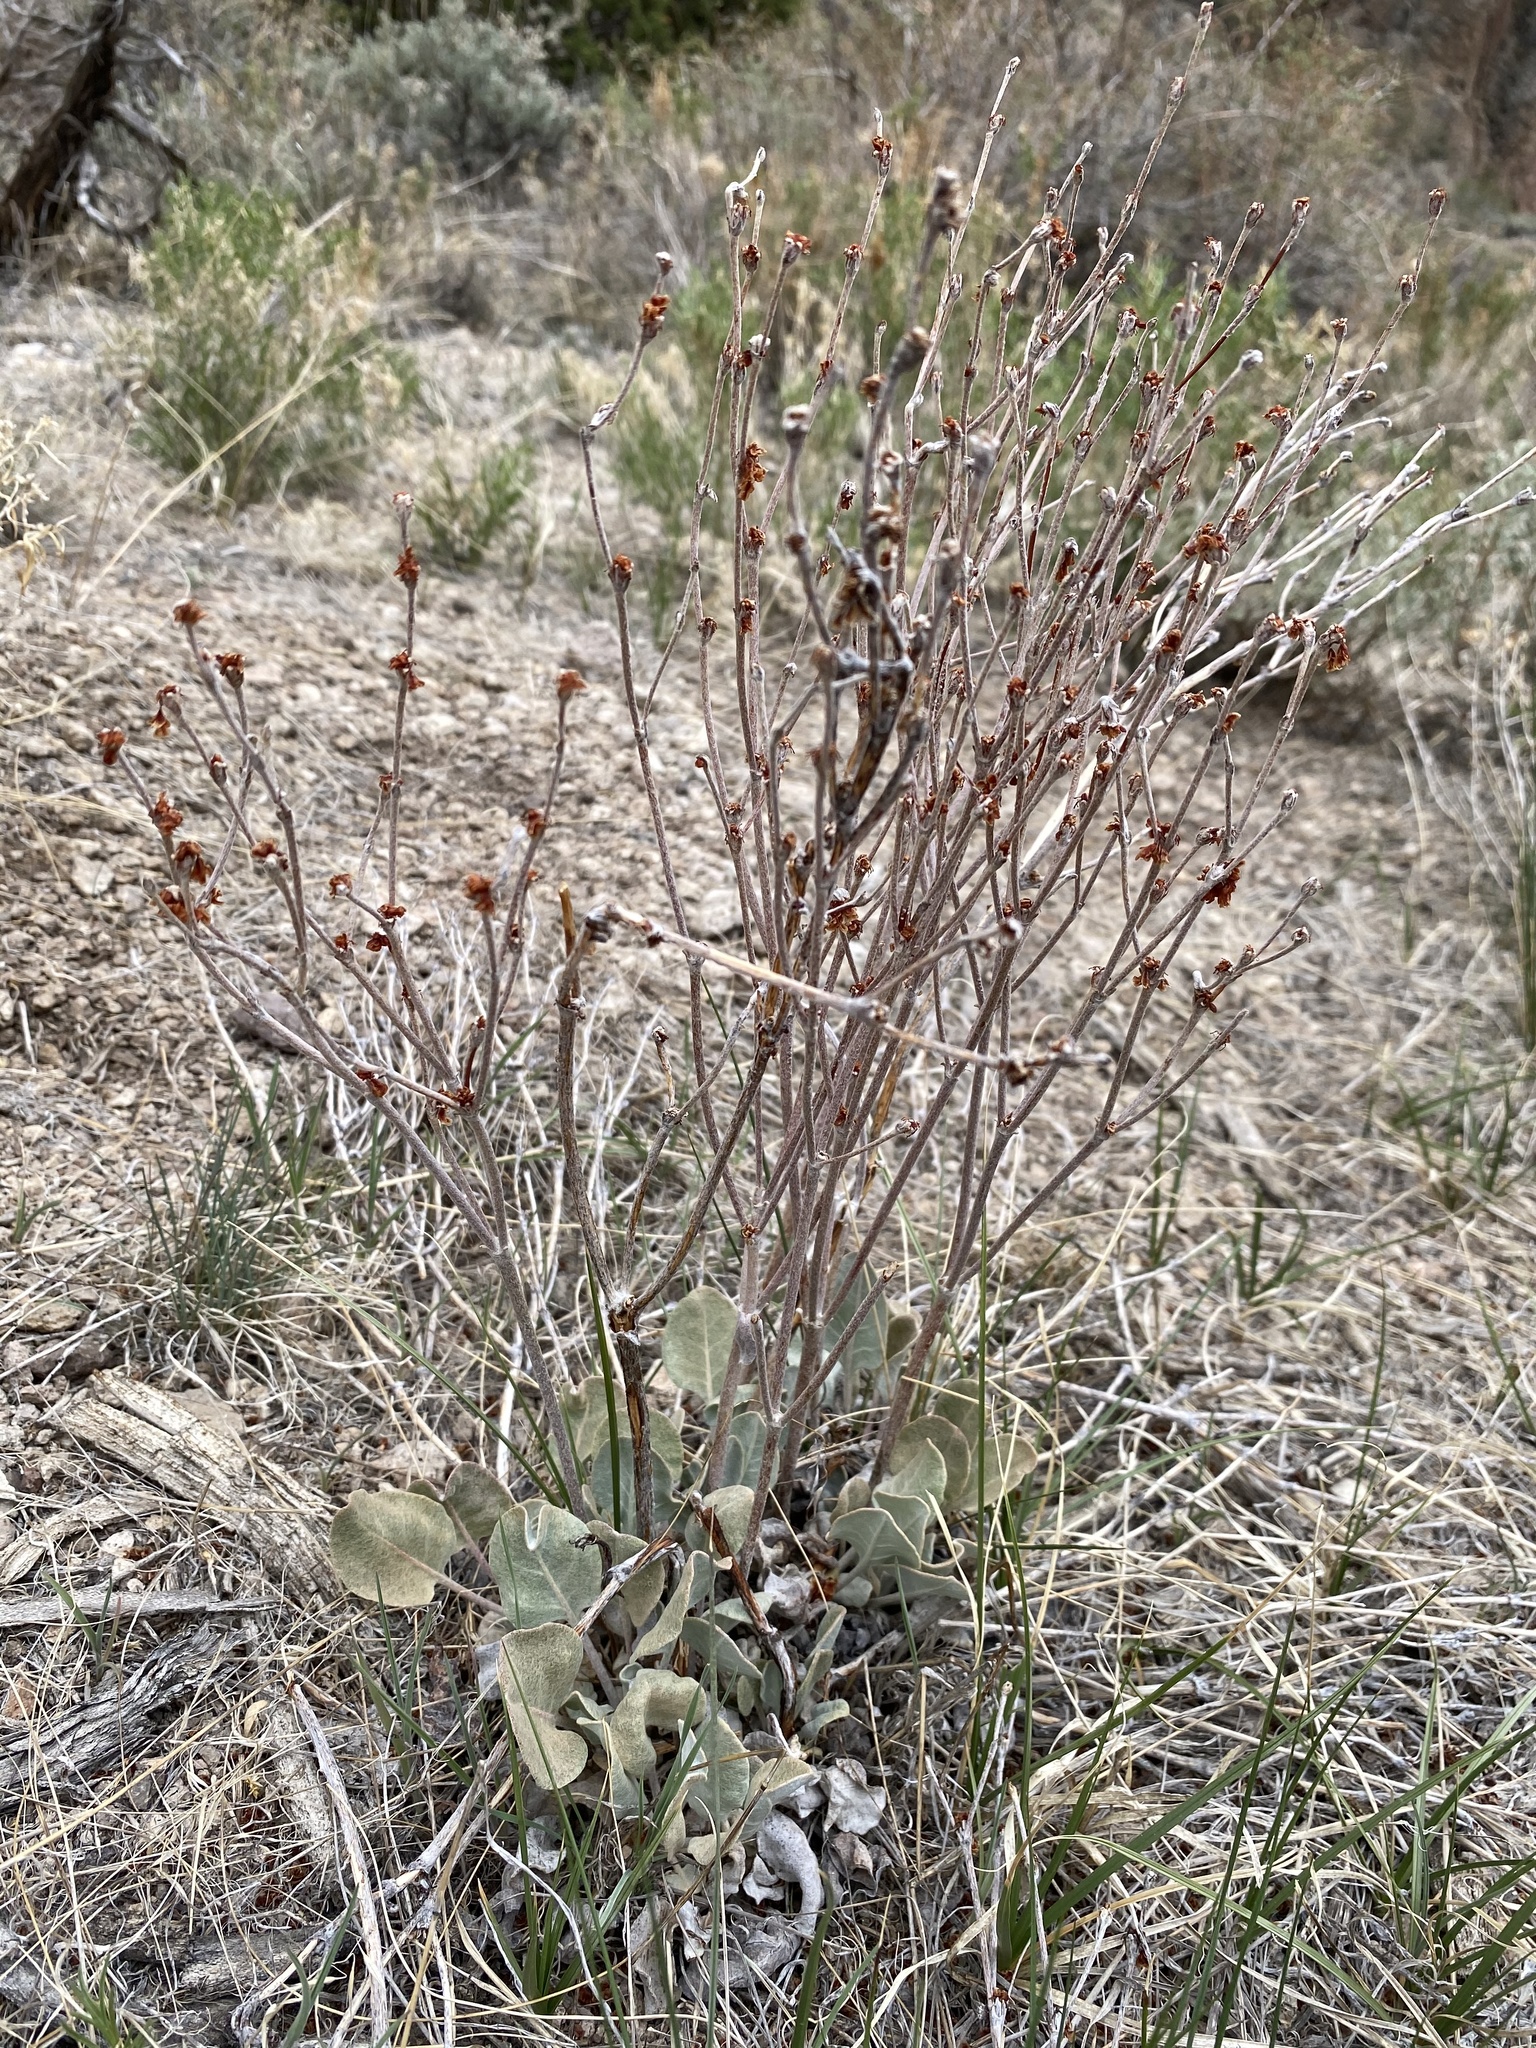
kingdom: Plantae
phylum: Tracheophyta
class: Magnoliopsida
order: Caryophyllales
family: Polygonaceae
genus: Eriogonum
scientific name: Eriogonum rupinum
